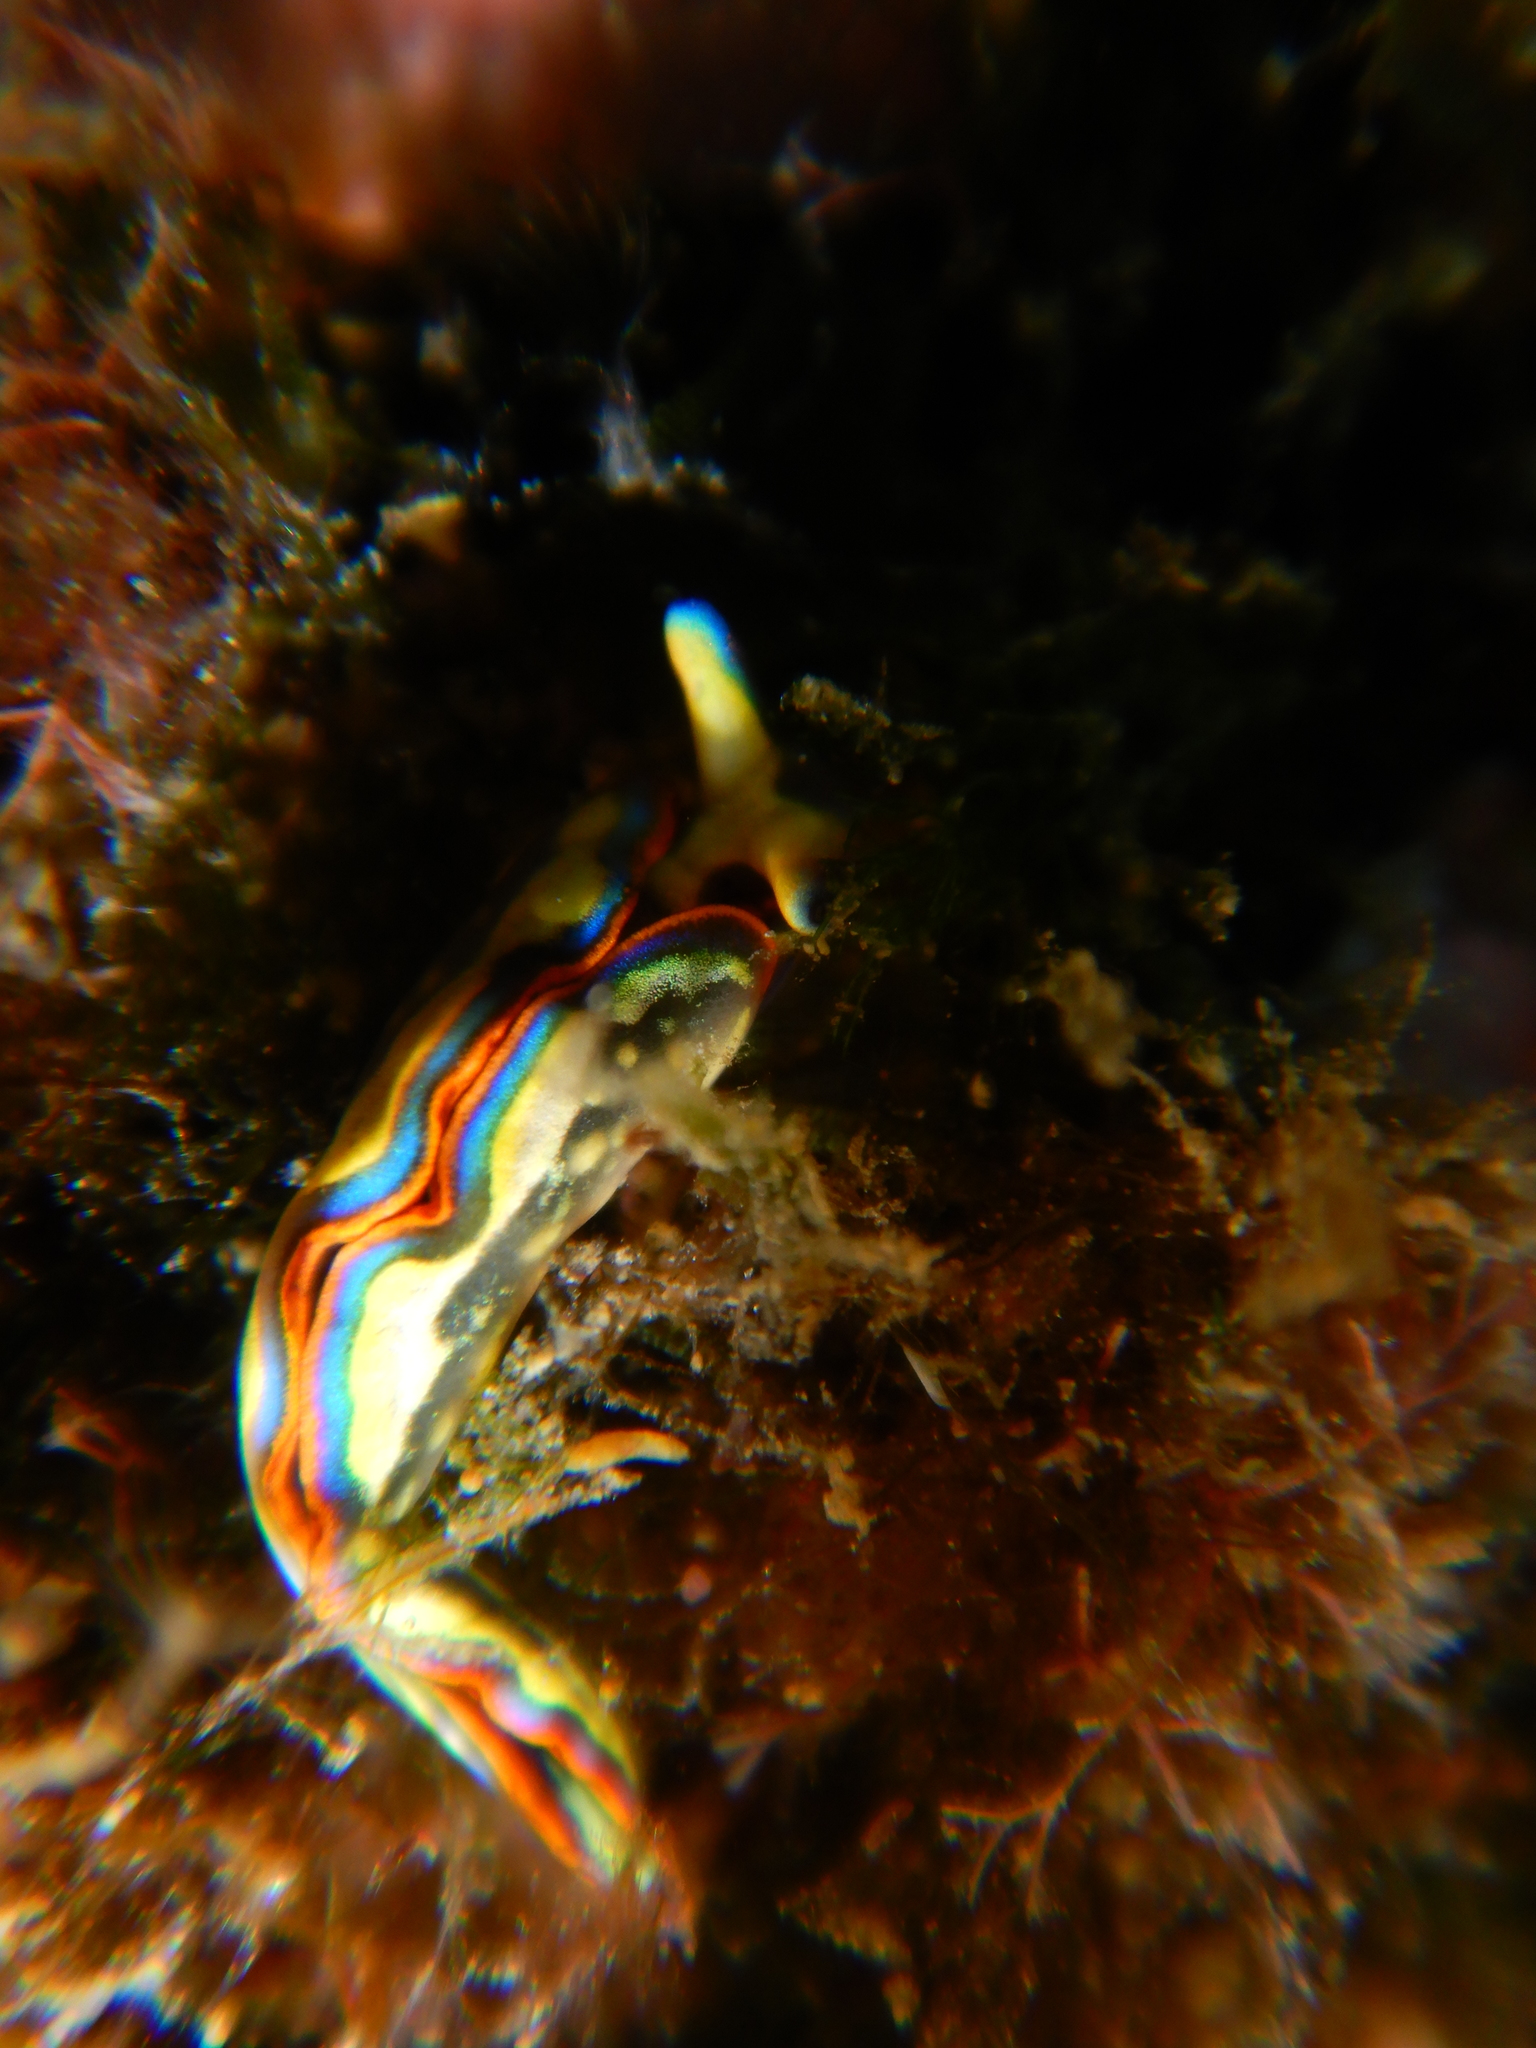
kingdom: Animalia
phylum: Mollusca
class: Gastropoda
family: Plakobranchidae
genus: Thuridilla
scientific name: Thuridilla hopei
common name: Splendid elysia
